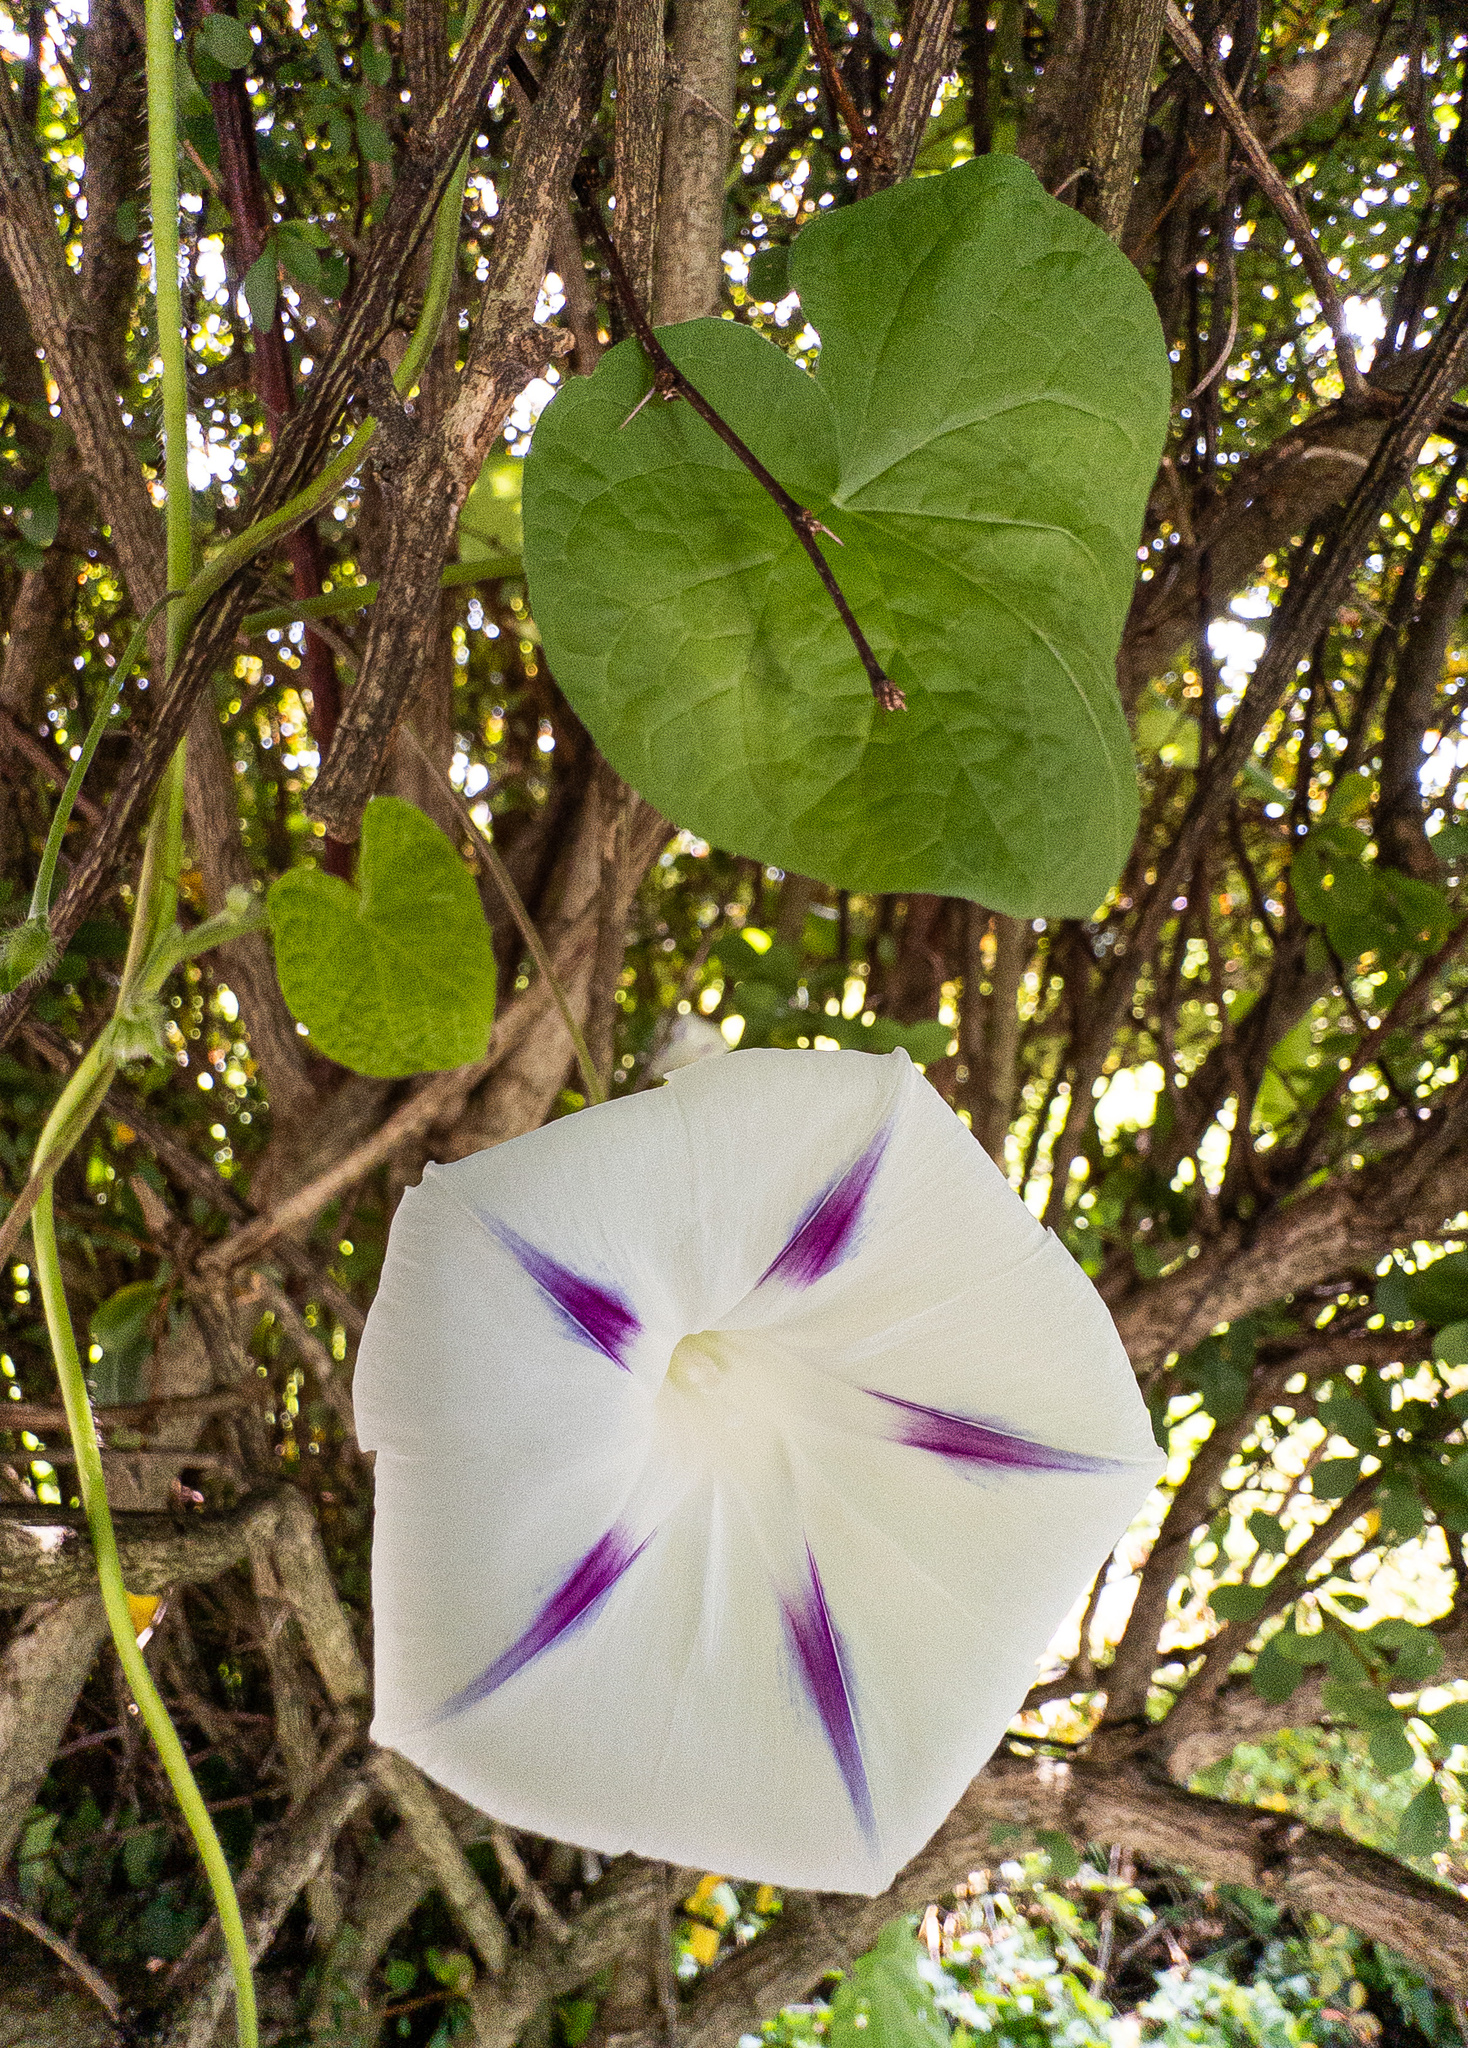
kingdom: Plantae
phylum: Tracheophyta
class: Magnoliopsida
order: Solanales
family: Convolvulaceae
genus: Ipomoea
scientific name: Ipomoea purpurea
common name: Common morning-glory
